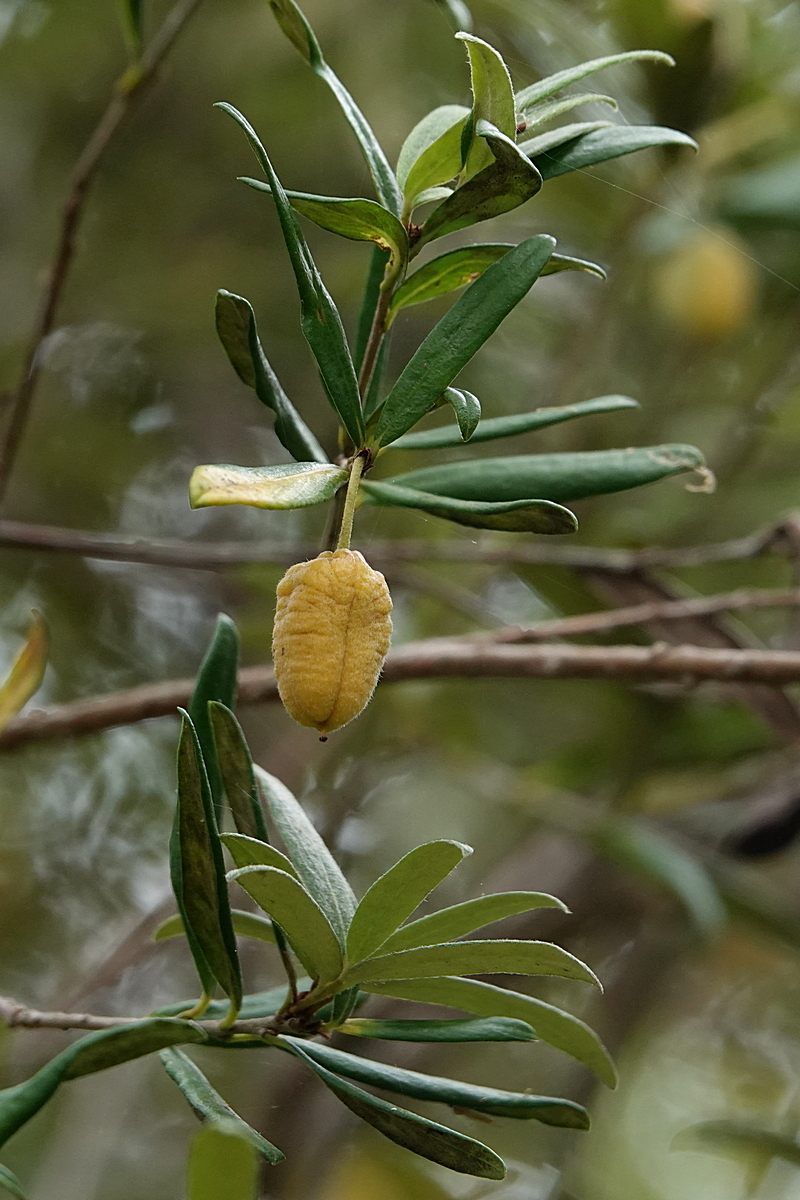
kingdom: Plantae
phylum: Tracheophyta
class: Magnoliopsida
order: Apiales
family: Pittosporaceae
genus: Pittosporum
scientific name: Pittosporum bicolor
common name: Tallowwood
